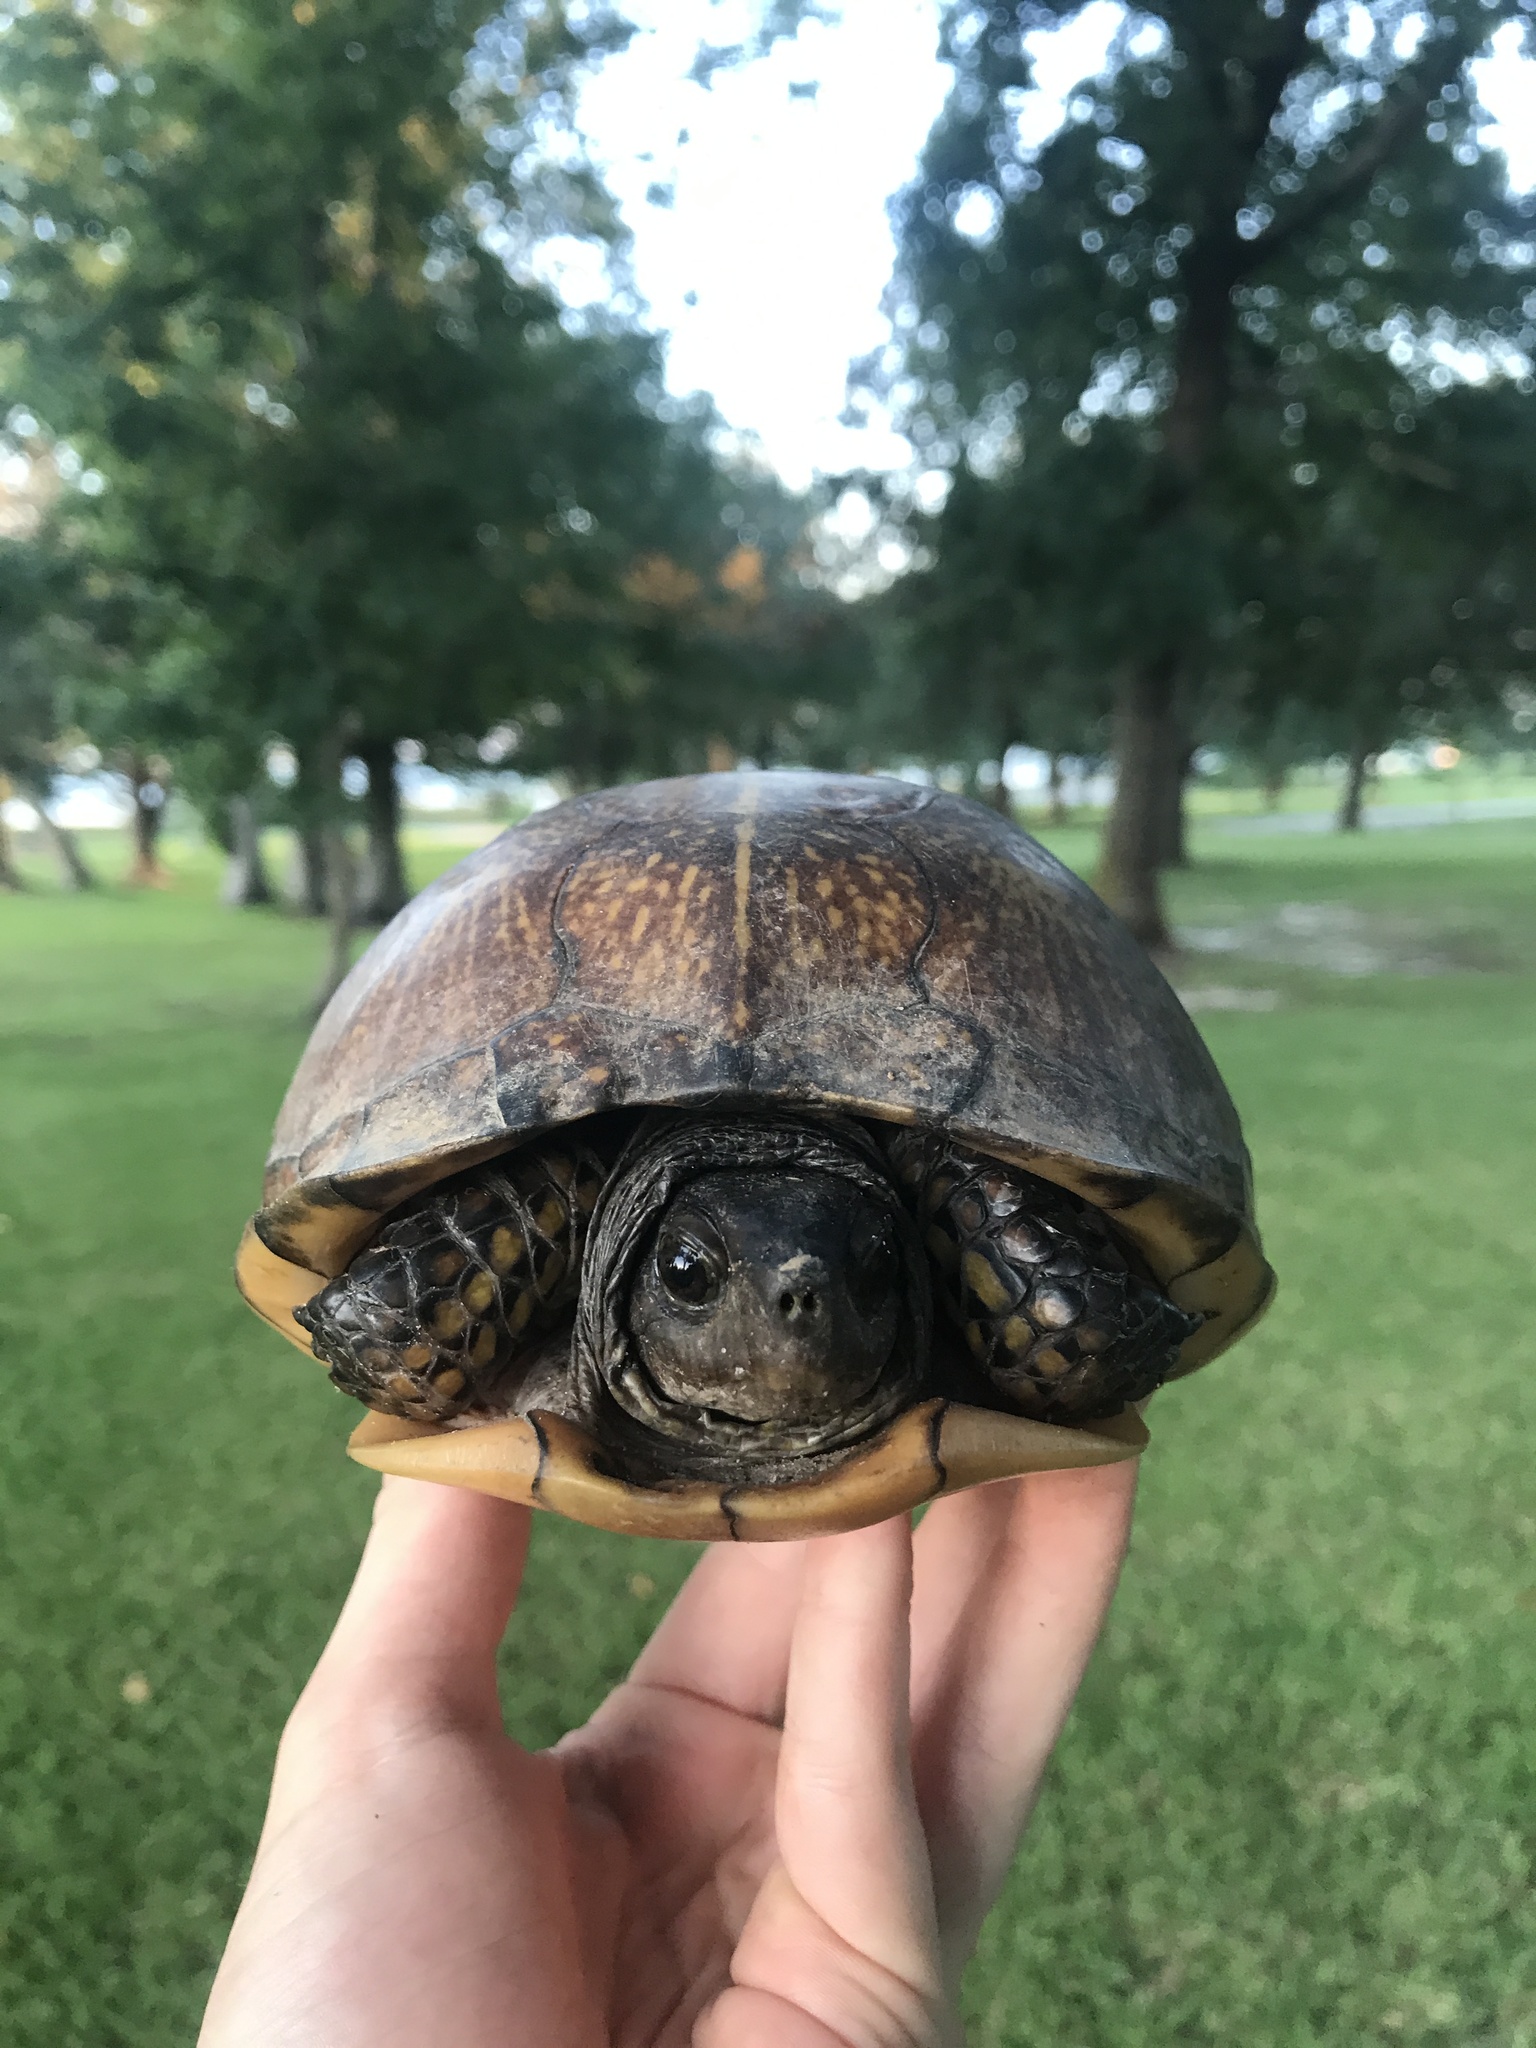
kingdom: Animalia
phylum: Chordata
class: Testudines
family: Emydidae
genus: Terrapene
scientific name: Terrapene carolina
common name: Common box turtle
